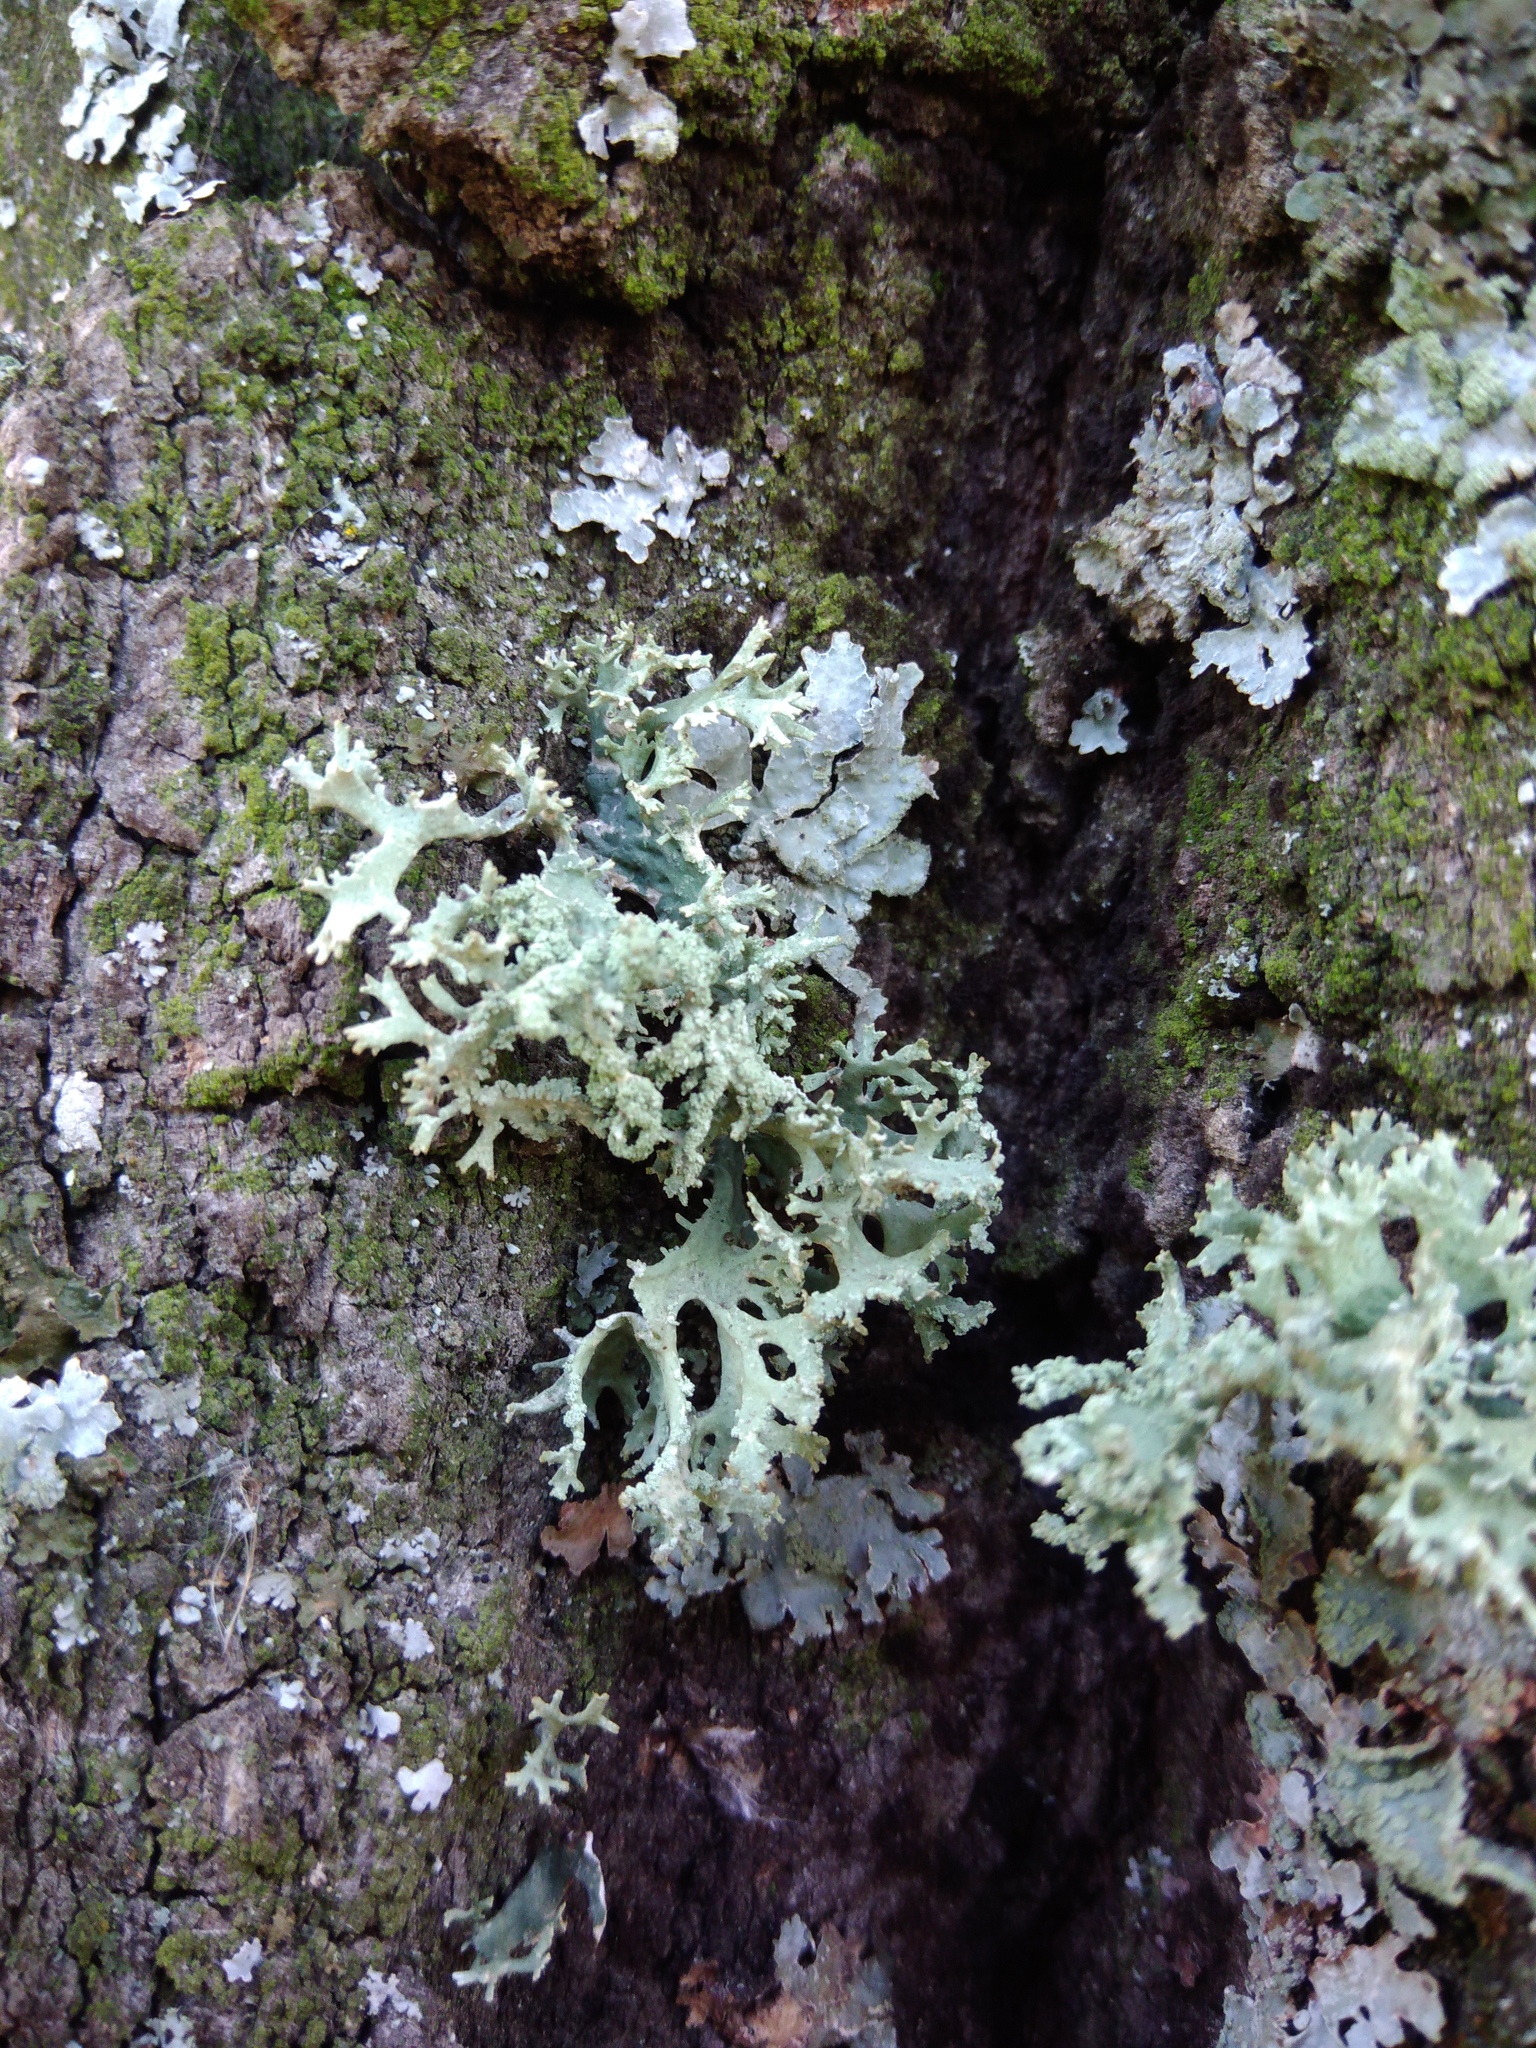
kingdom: Fungi
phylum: Ascomycota
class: Lecanoromycetes
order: Lecanorales
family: Parmeliaceae
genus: Evernia
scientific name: Evernia prunastri
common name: Oak moss
